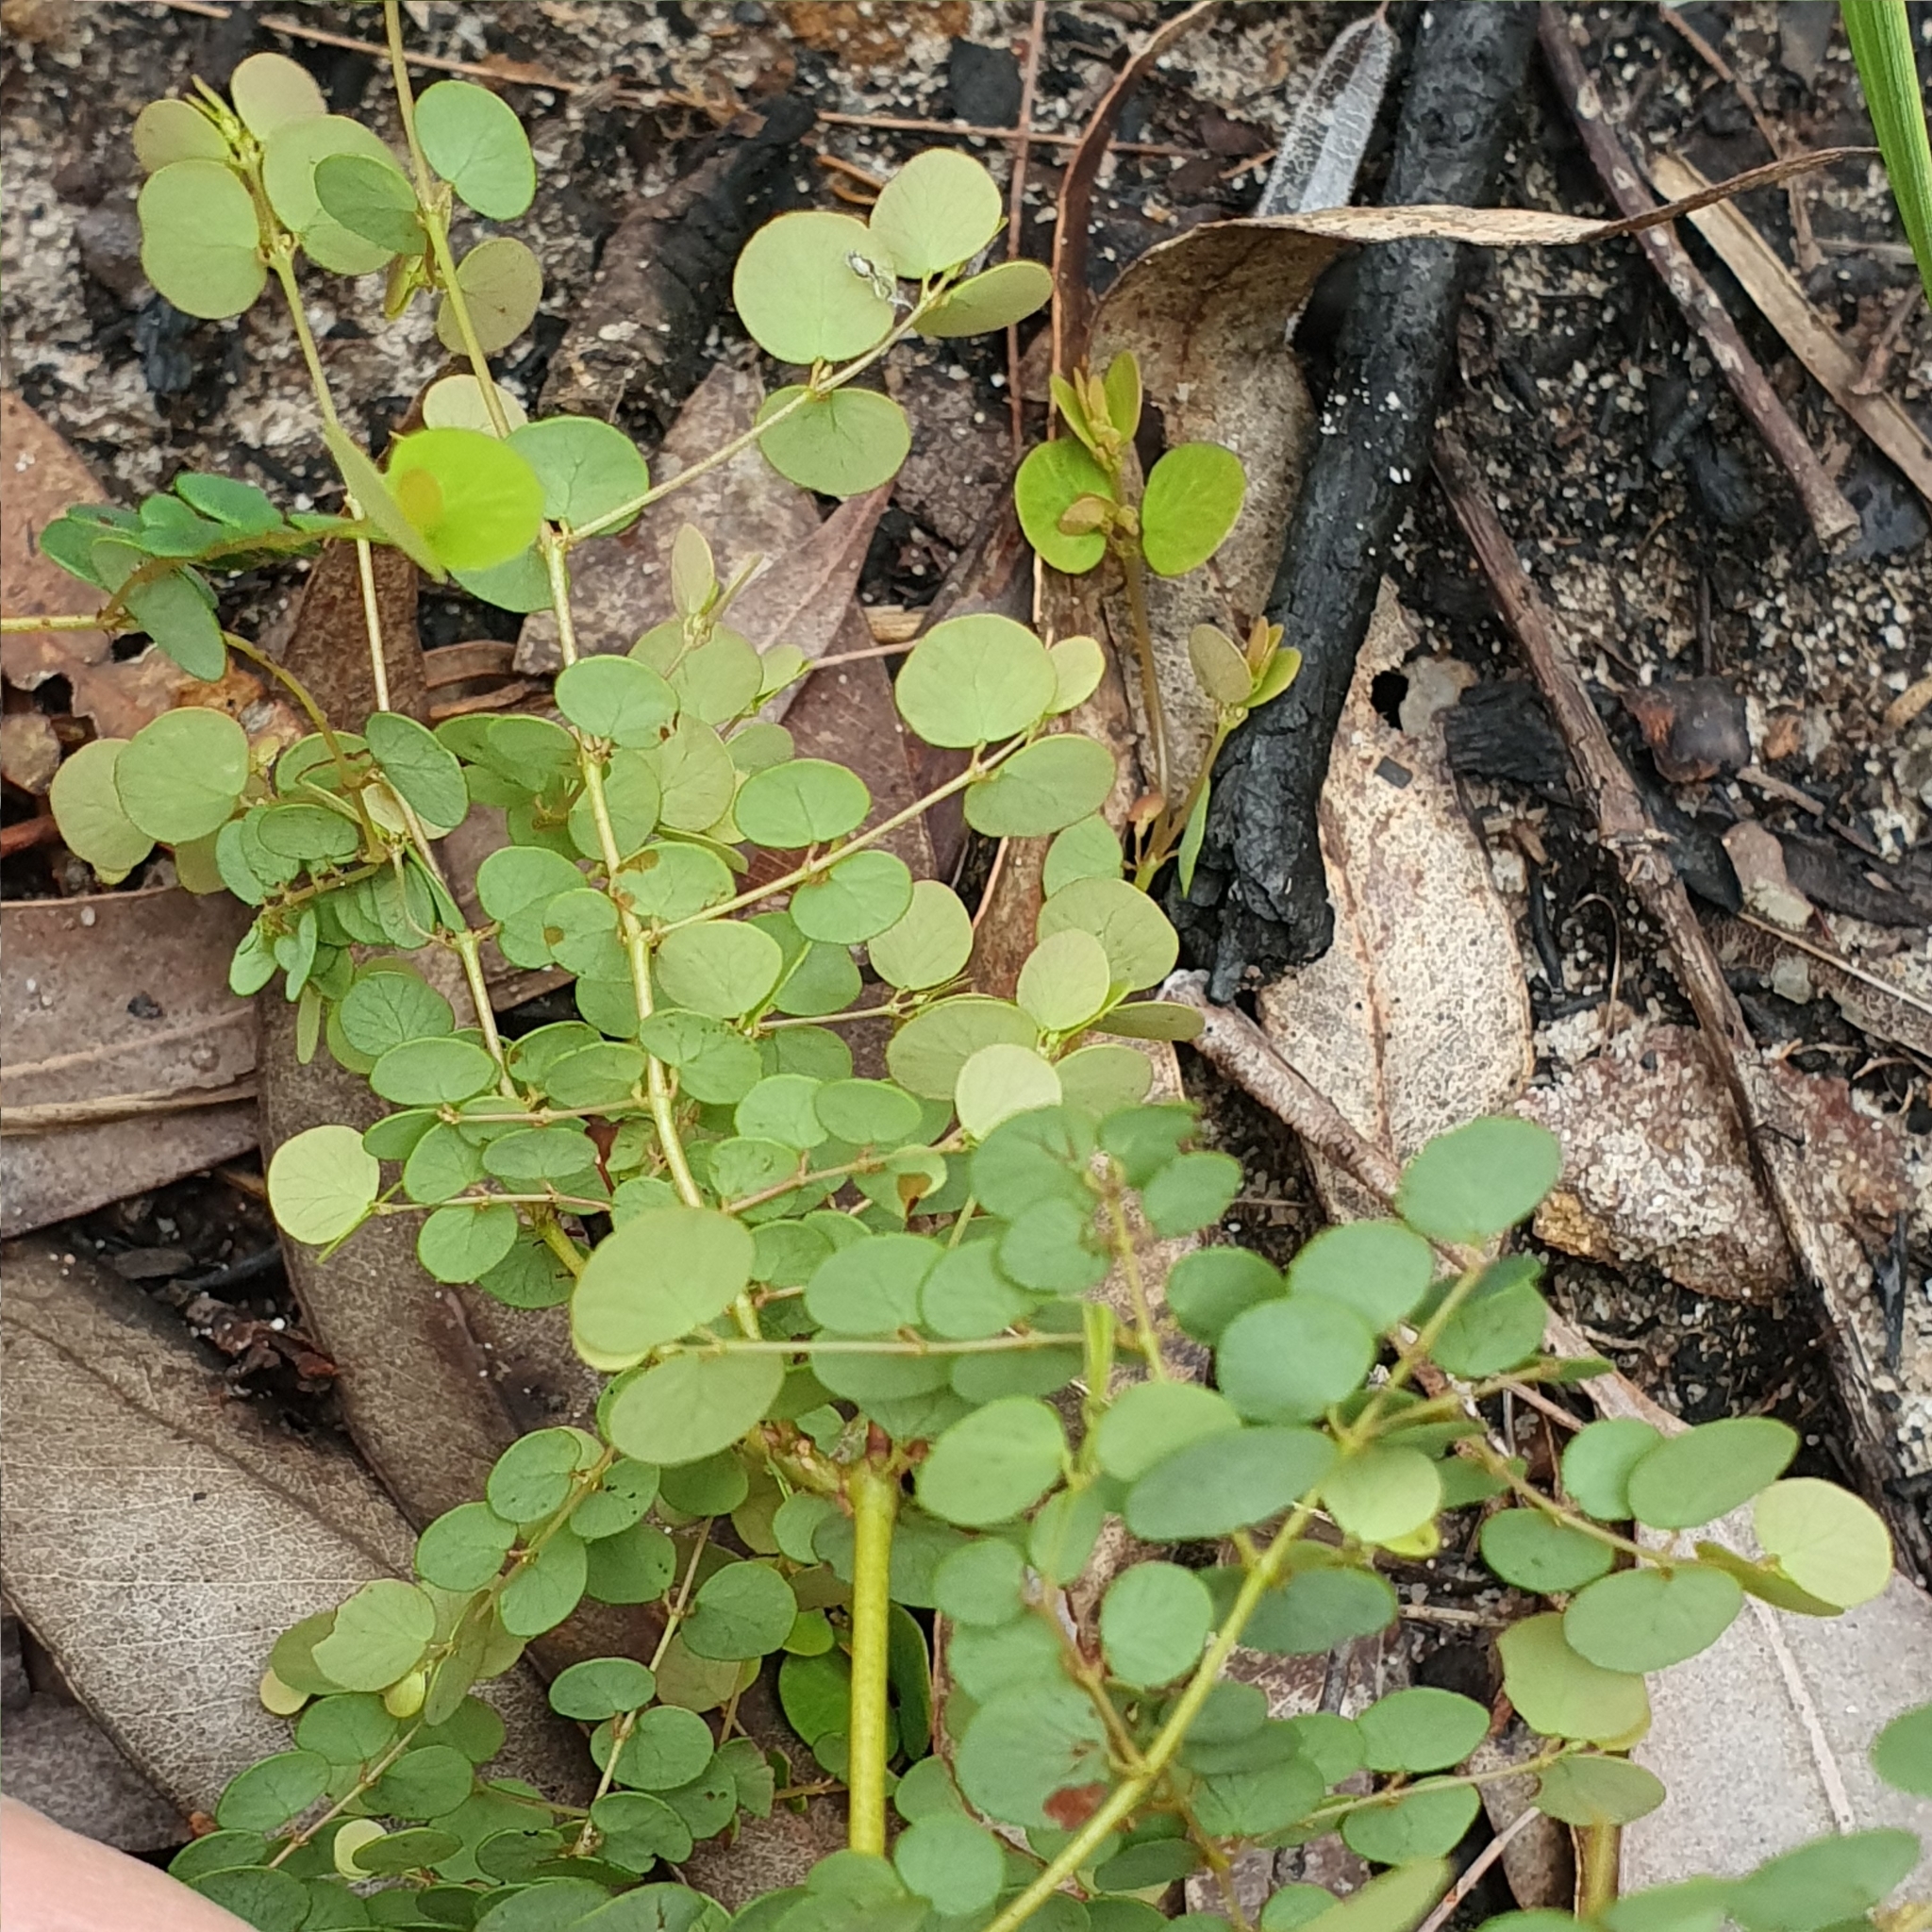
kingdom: Plantae
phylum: Tracheophyta
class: Magnoliopsida
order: Fabales
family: Fabaceae
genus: Bossiaea
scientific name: Bossiaea lenticularis
